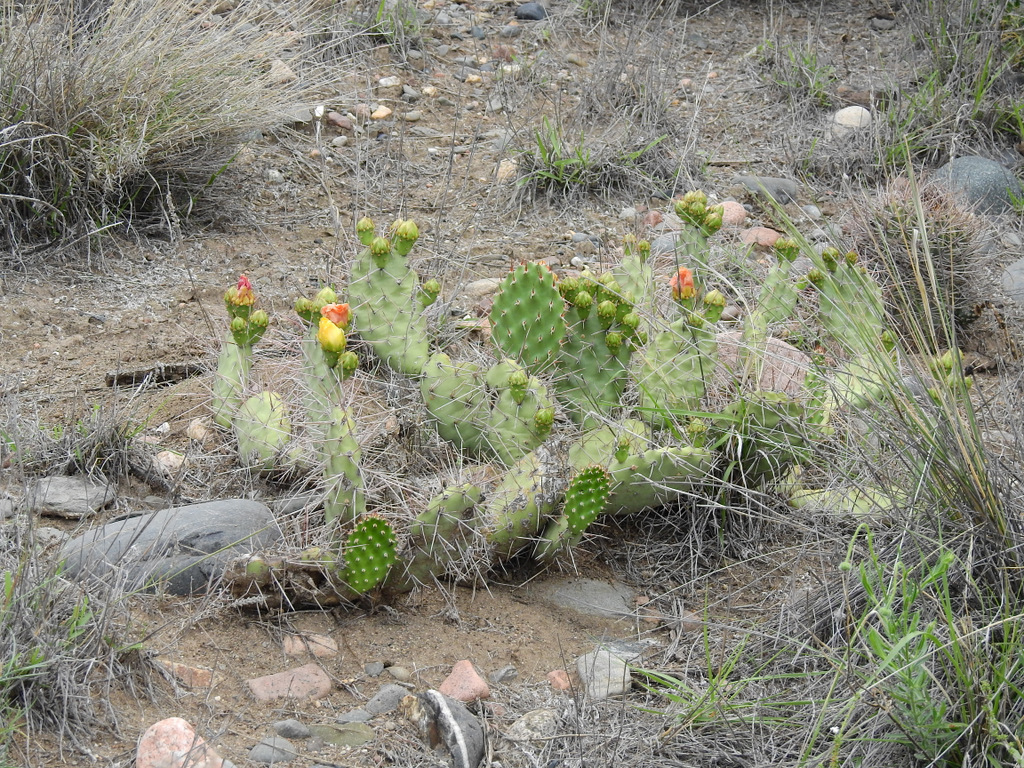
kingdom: Plantae
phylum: Tracheophyta
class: Magnoliopsida
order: Caryophyllales
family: Cactaceae
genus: Opuntia
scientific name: Opuntia sulphurea
